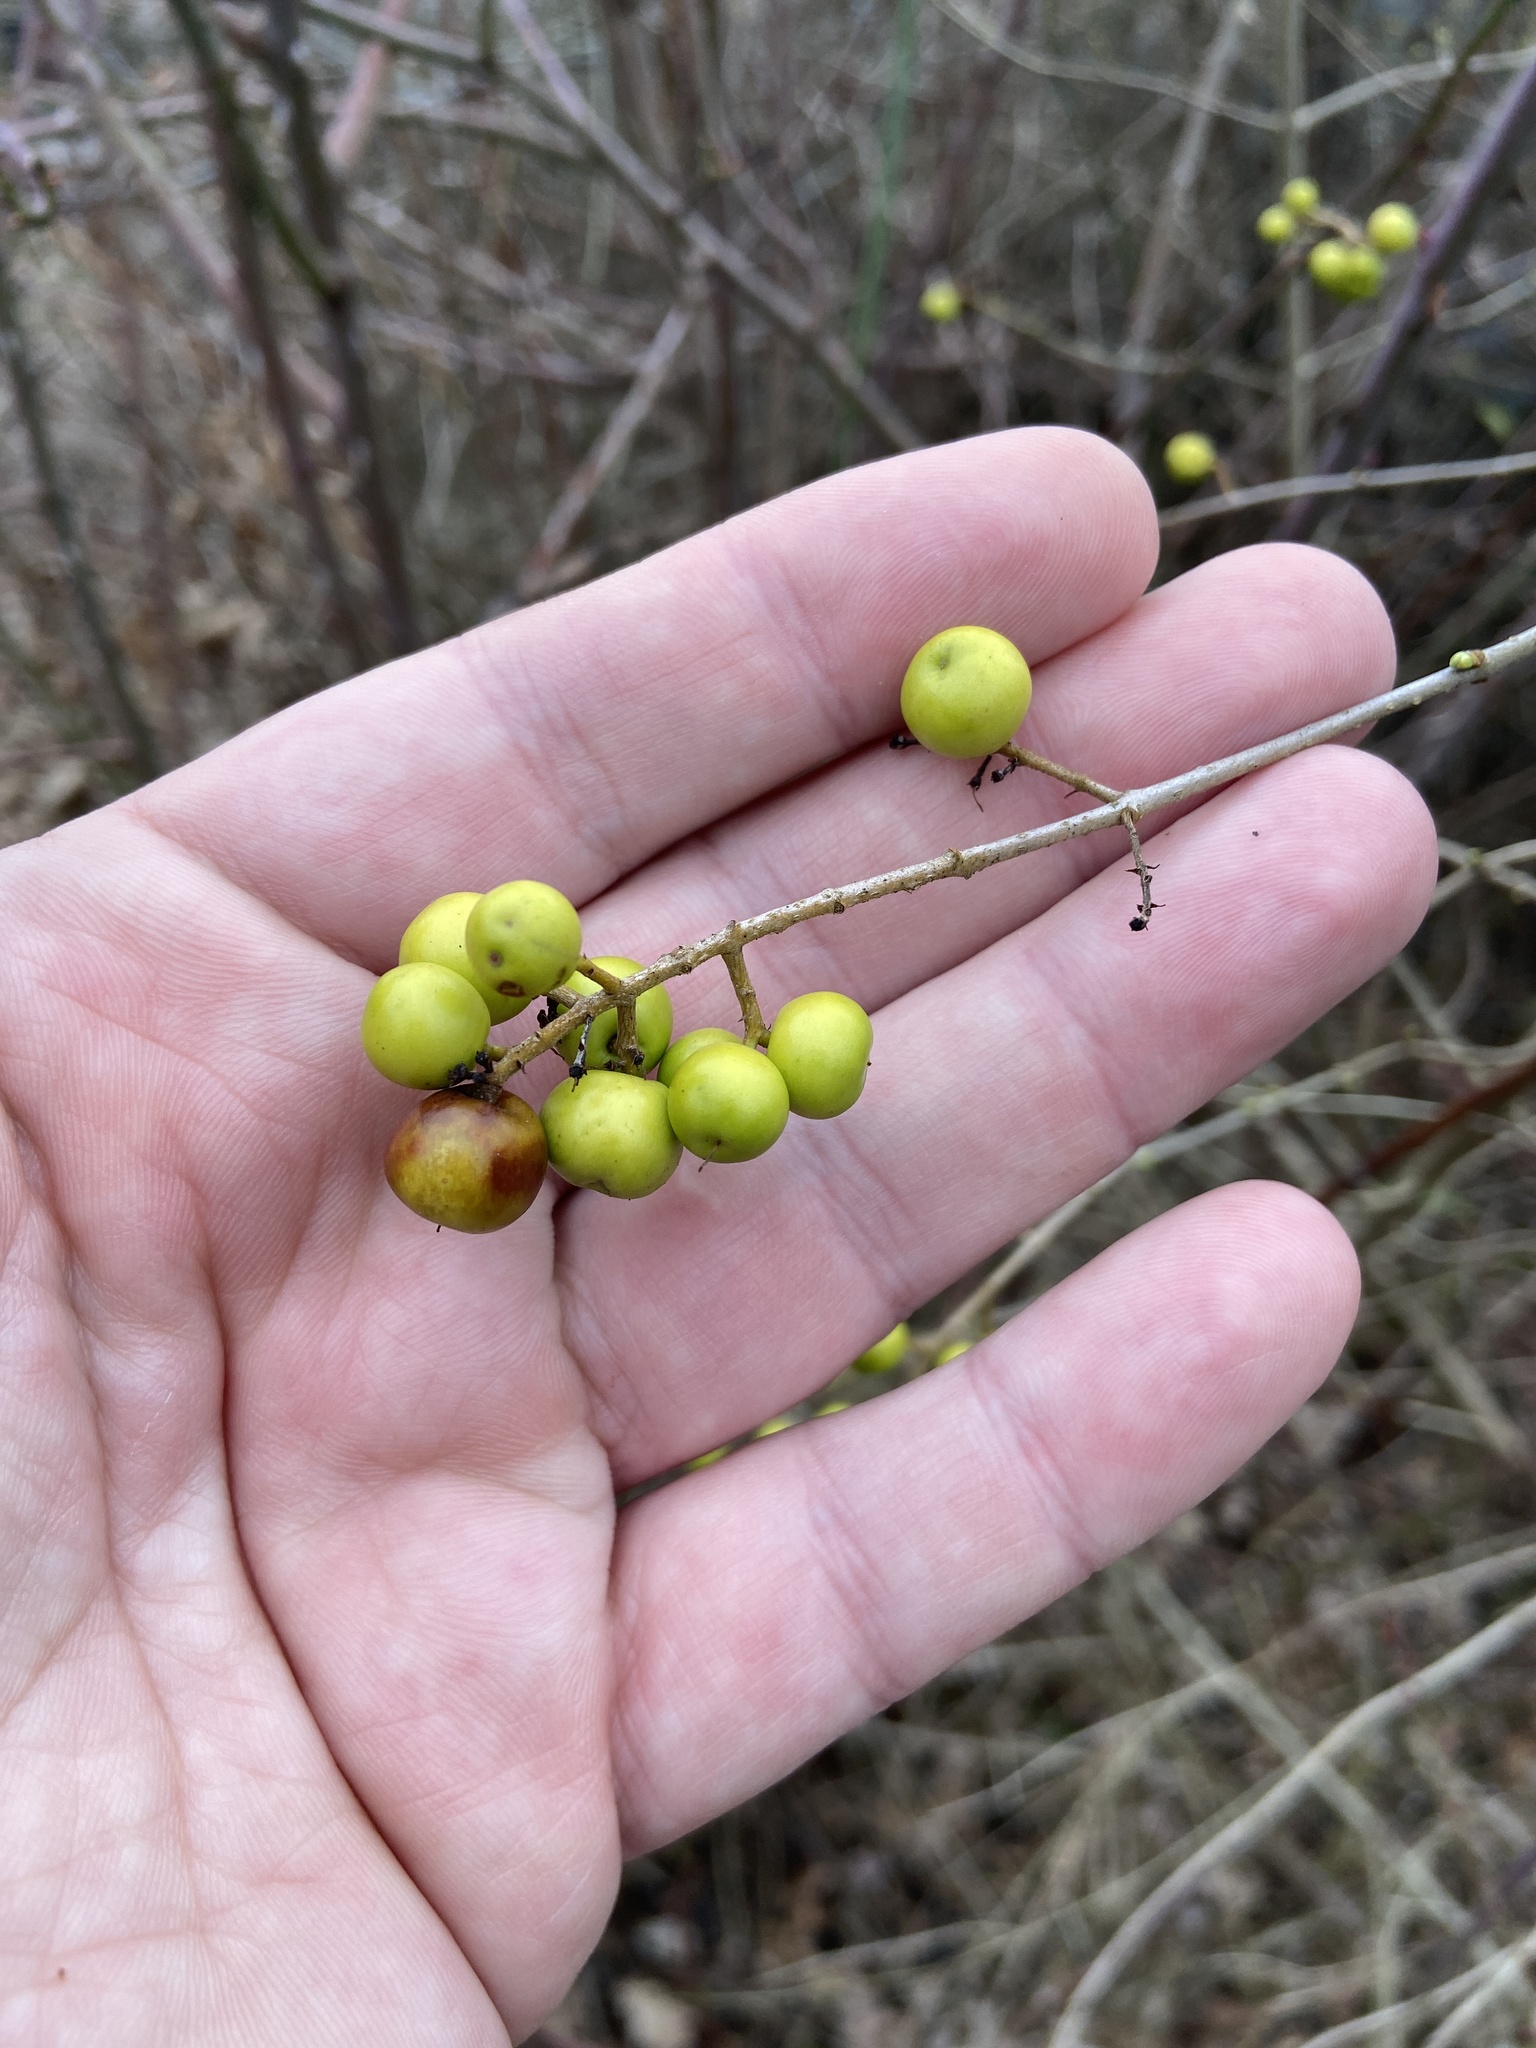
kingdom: Plantae
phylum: Tracheophyta
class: Magnoliopsida
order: Cornales
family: Cornaceae
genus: Cornus
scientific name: Cornus mas
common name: Cornelian-cherry
